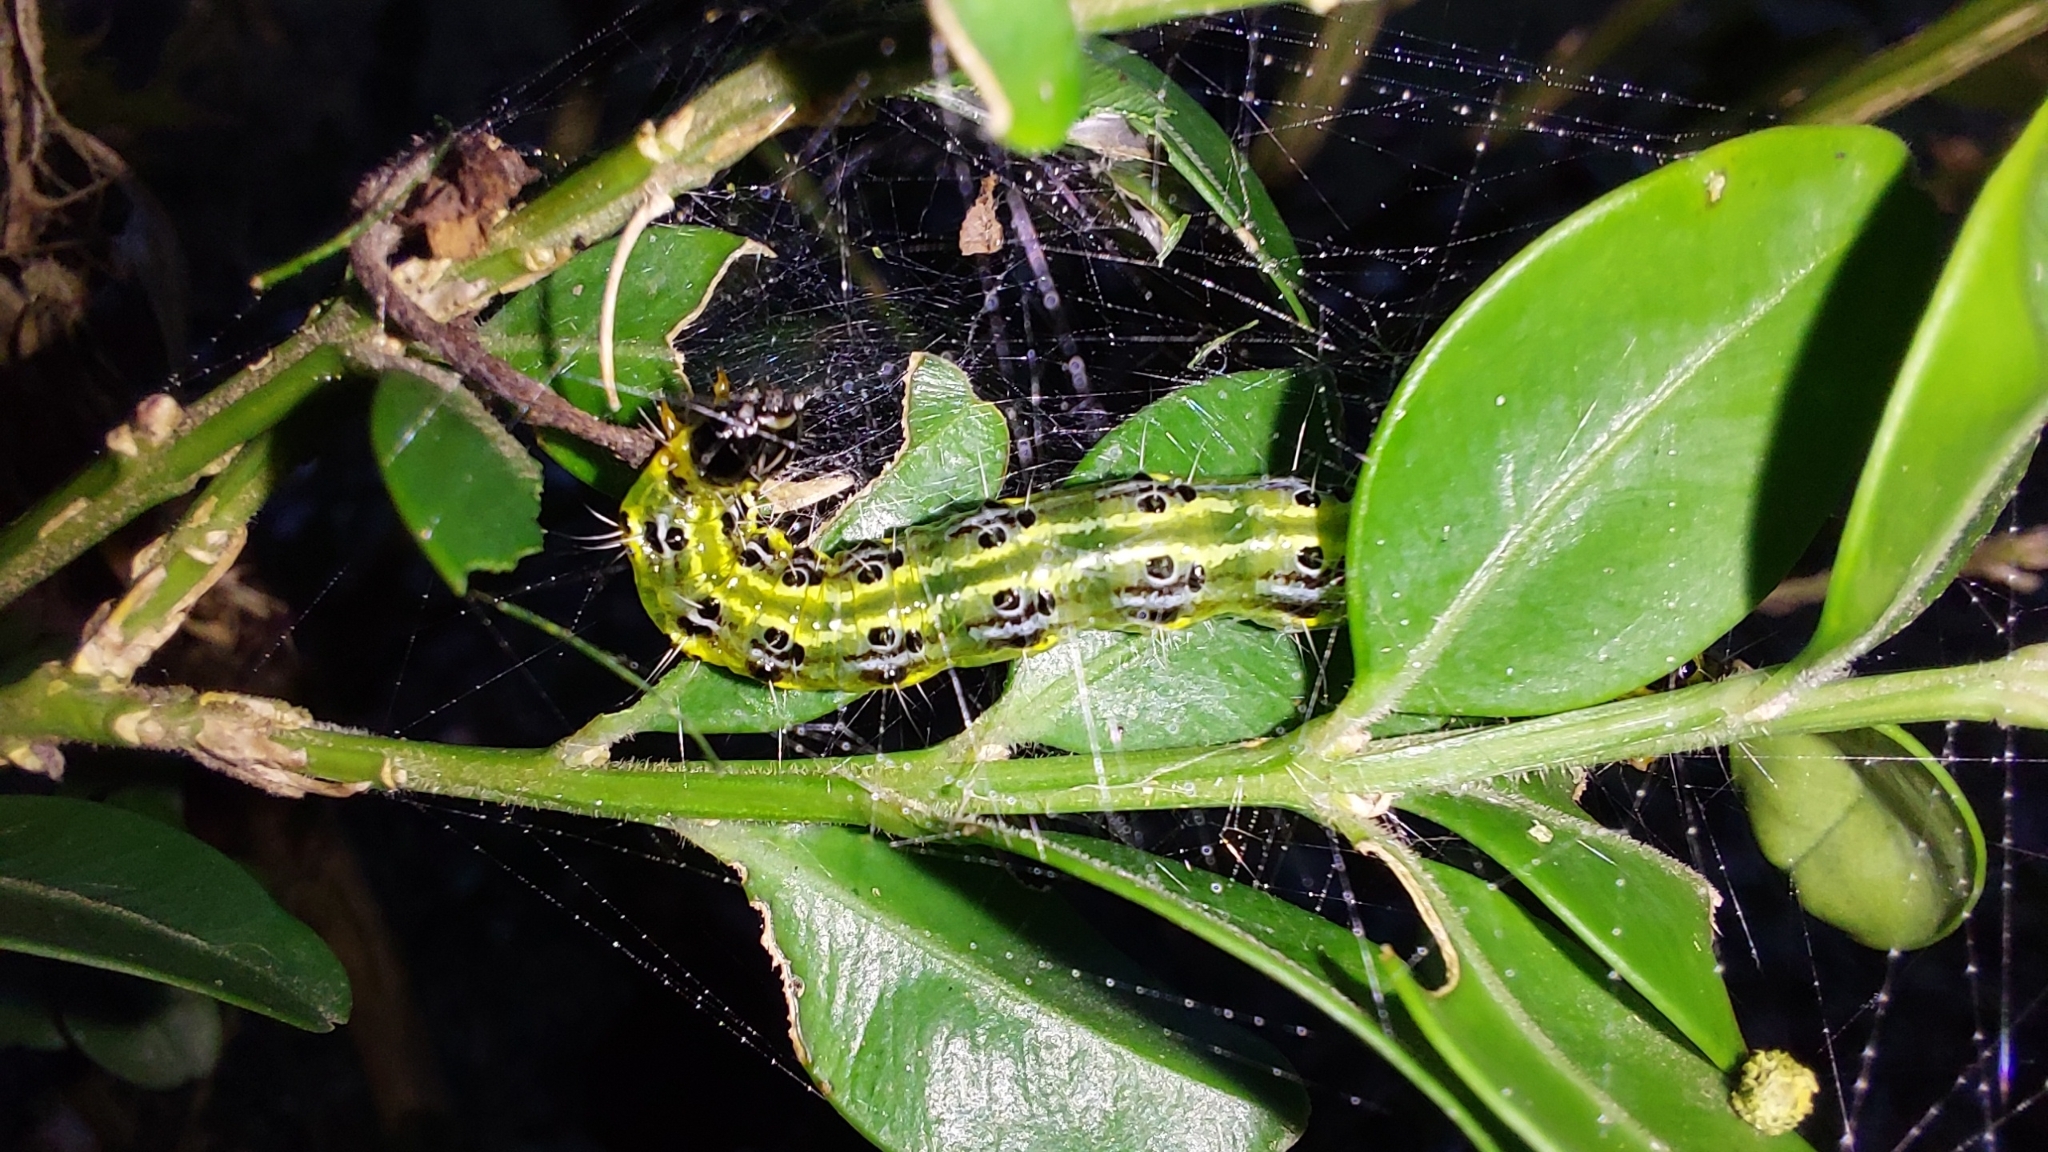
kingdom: Animalia
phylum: Arthropoda
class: Insecta
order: Lepidoptera
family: Crambidae
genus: Cydalima
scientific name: Cydalima perspectalis
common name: Box tree moth
